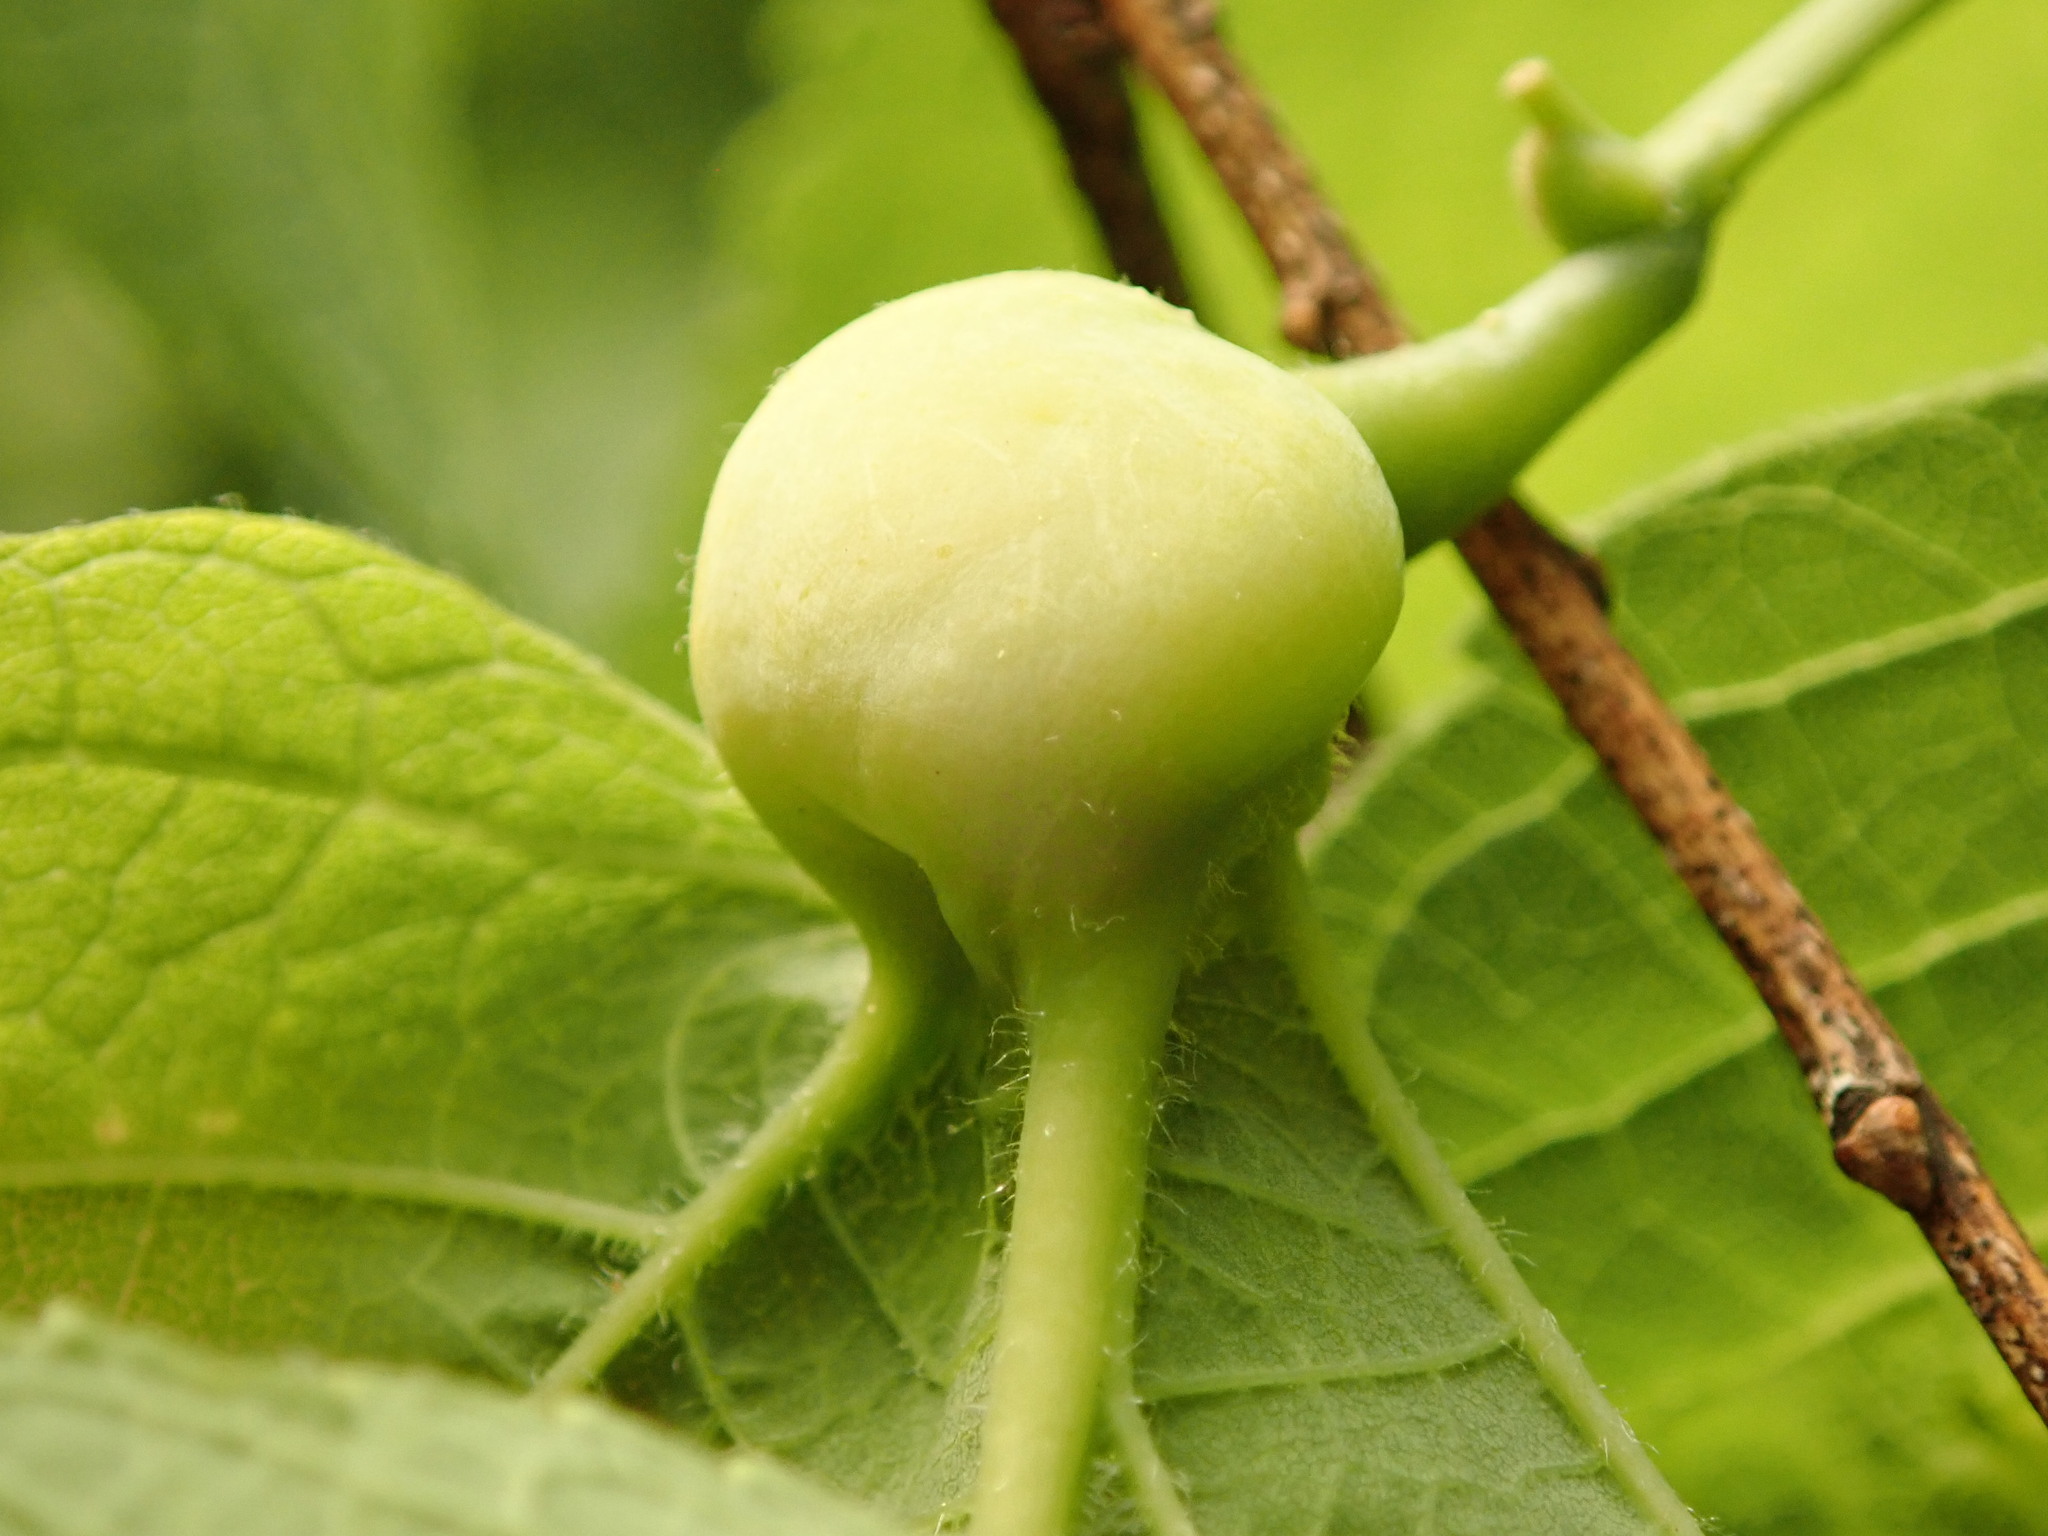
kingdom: Animalia
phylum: Arthropoda
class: Insecta
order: Hemiptera
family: Aphalaridae
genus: Pachypsylla
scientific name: Pachypsylla venusta
